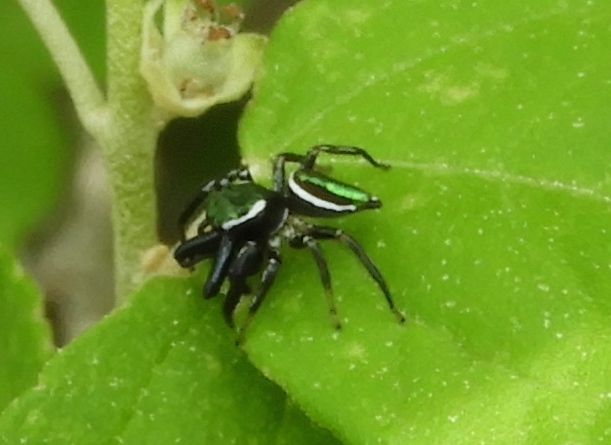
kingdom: Animalia
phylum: Arthropoda
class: Arachnida
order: Araneae
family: Salticidae
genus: Messua
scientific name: Messua limbata
